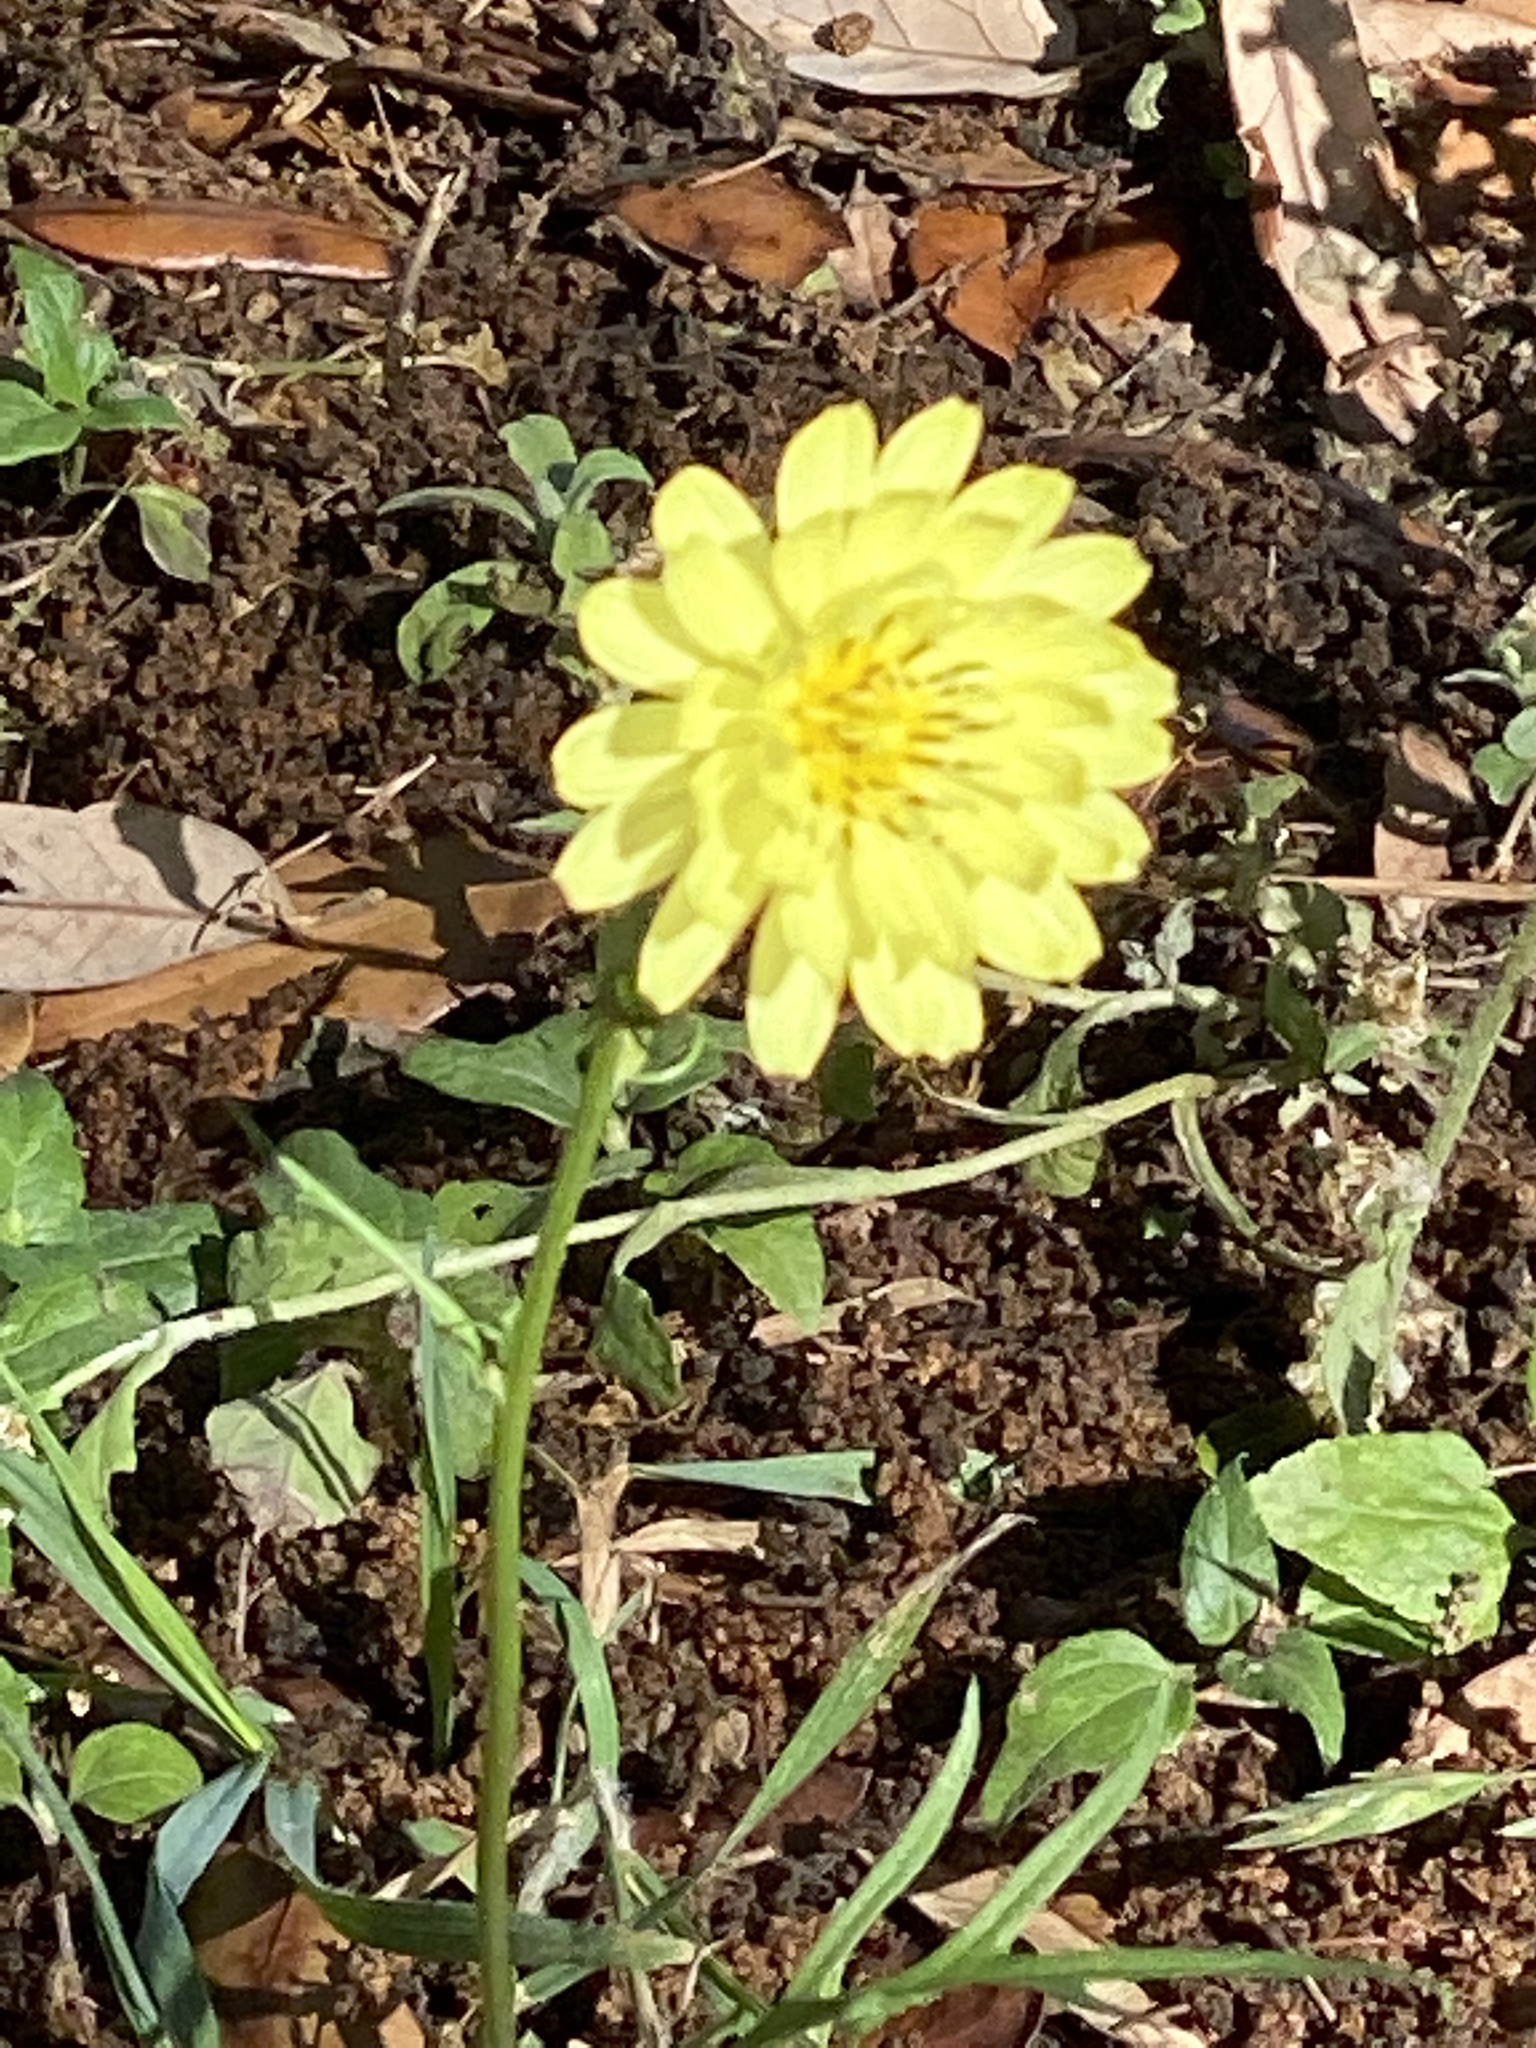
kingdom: Plantae
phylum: Tracheophyta
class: Magnoliopsida
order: Asterales
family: Asteraceae
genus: Pyrrhopappus
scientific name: Pyrrhopappus pauciflorus
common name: Texas false dandelion
